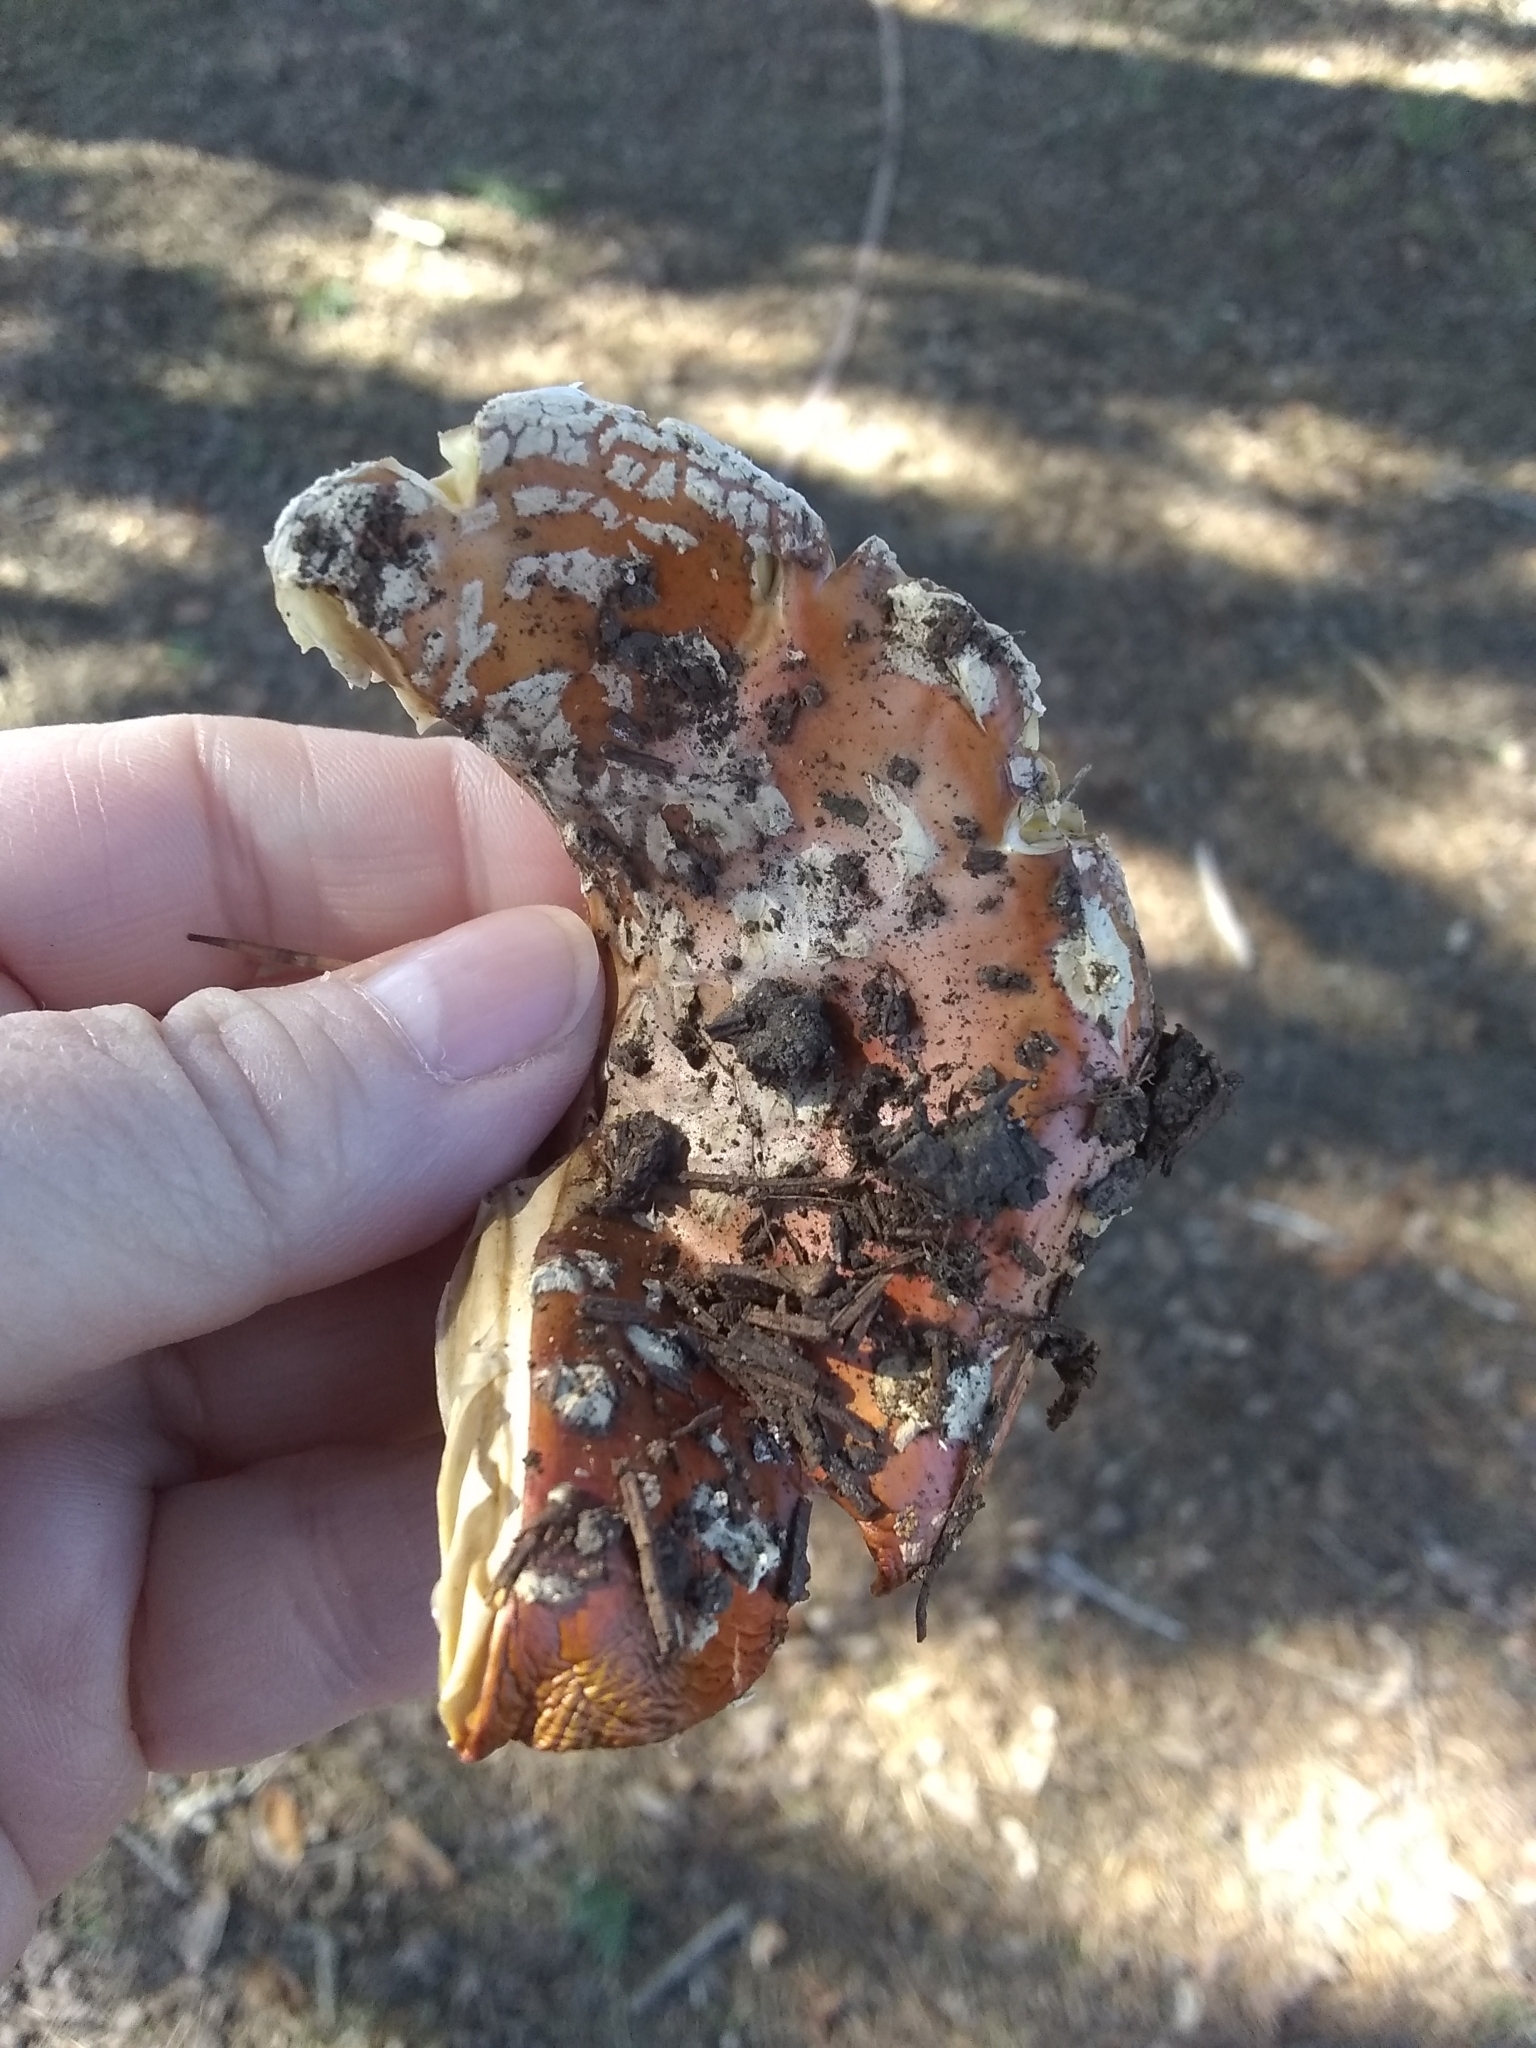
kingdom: Fungi
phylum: Basidiomycota
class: Agaricomycetes
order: Agaricales
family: Amanitaceae
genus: Amanita
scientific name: Amanita muscaria
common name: Fly agaric
